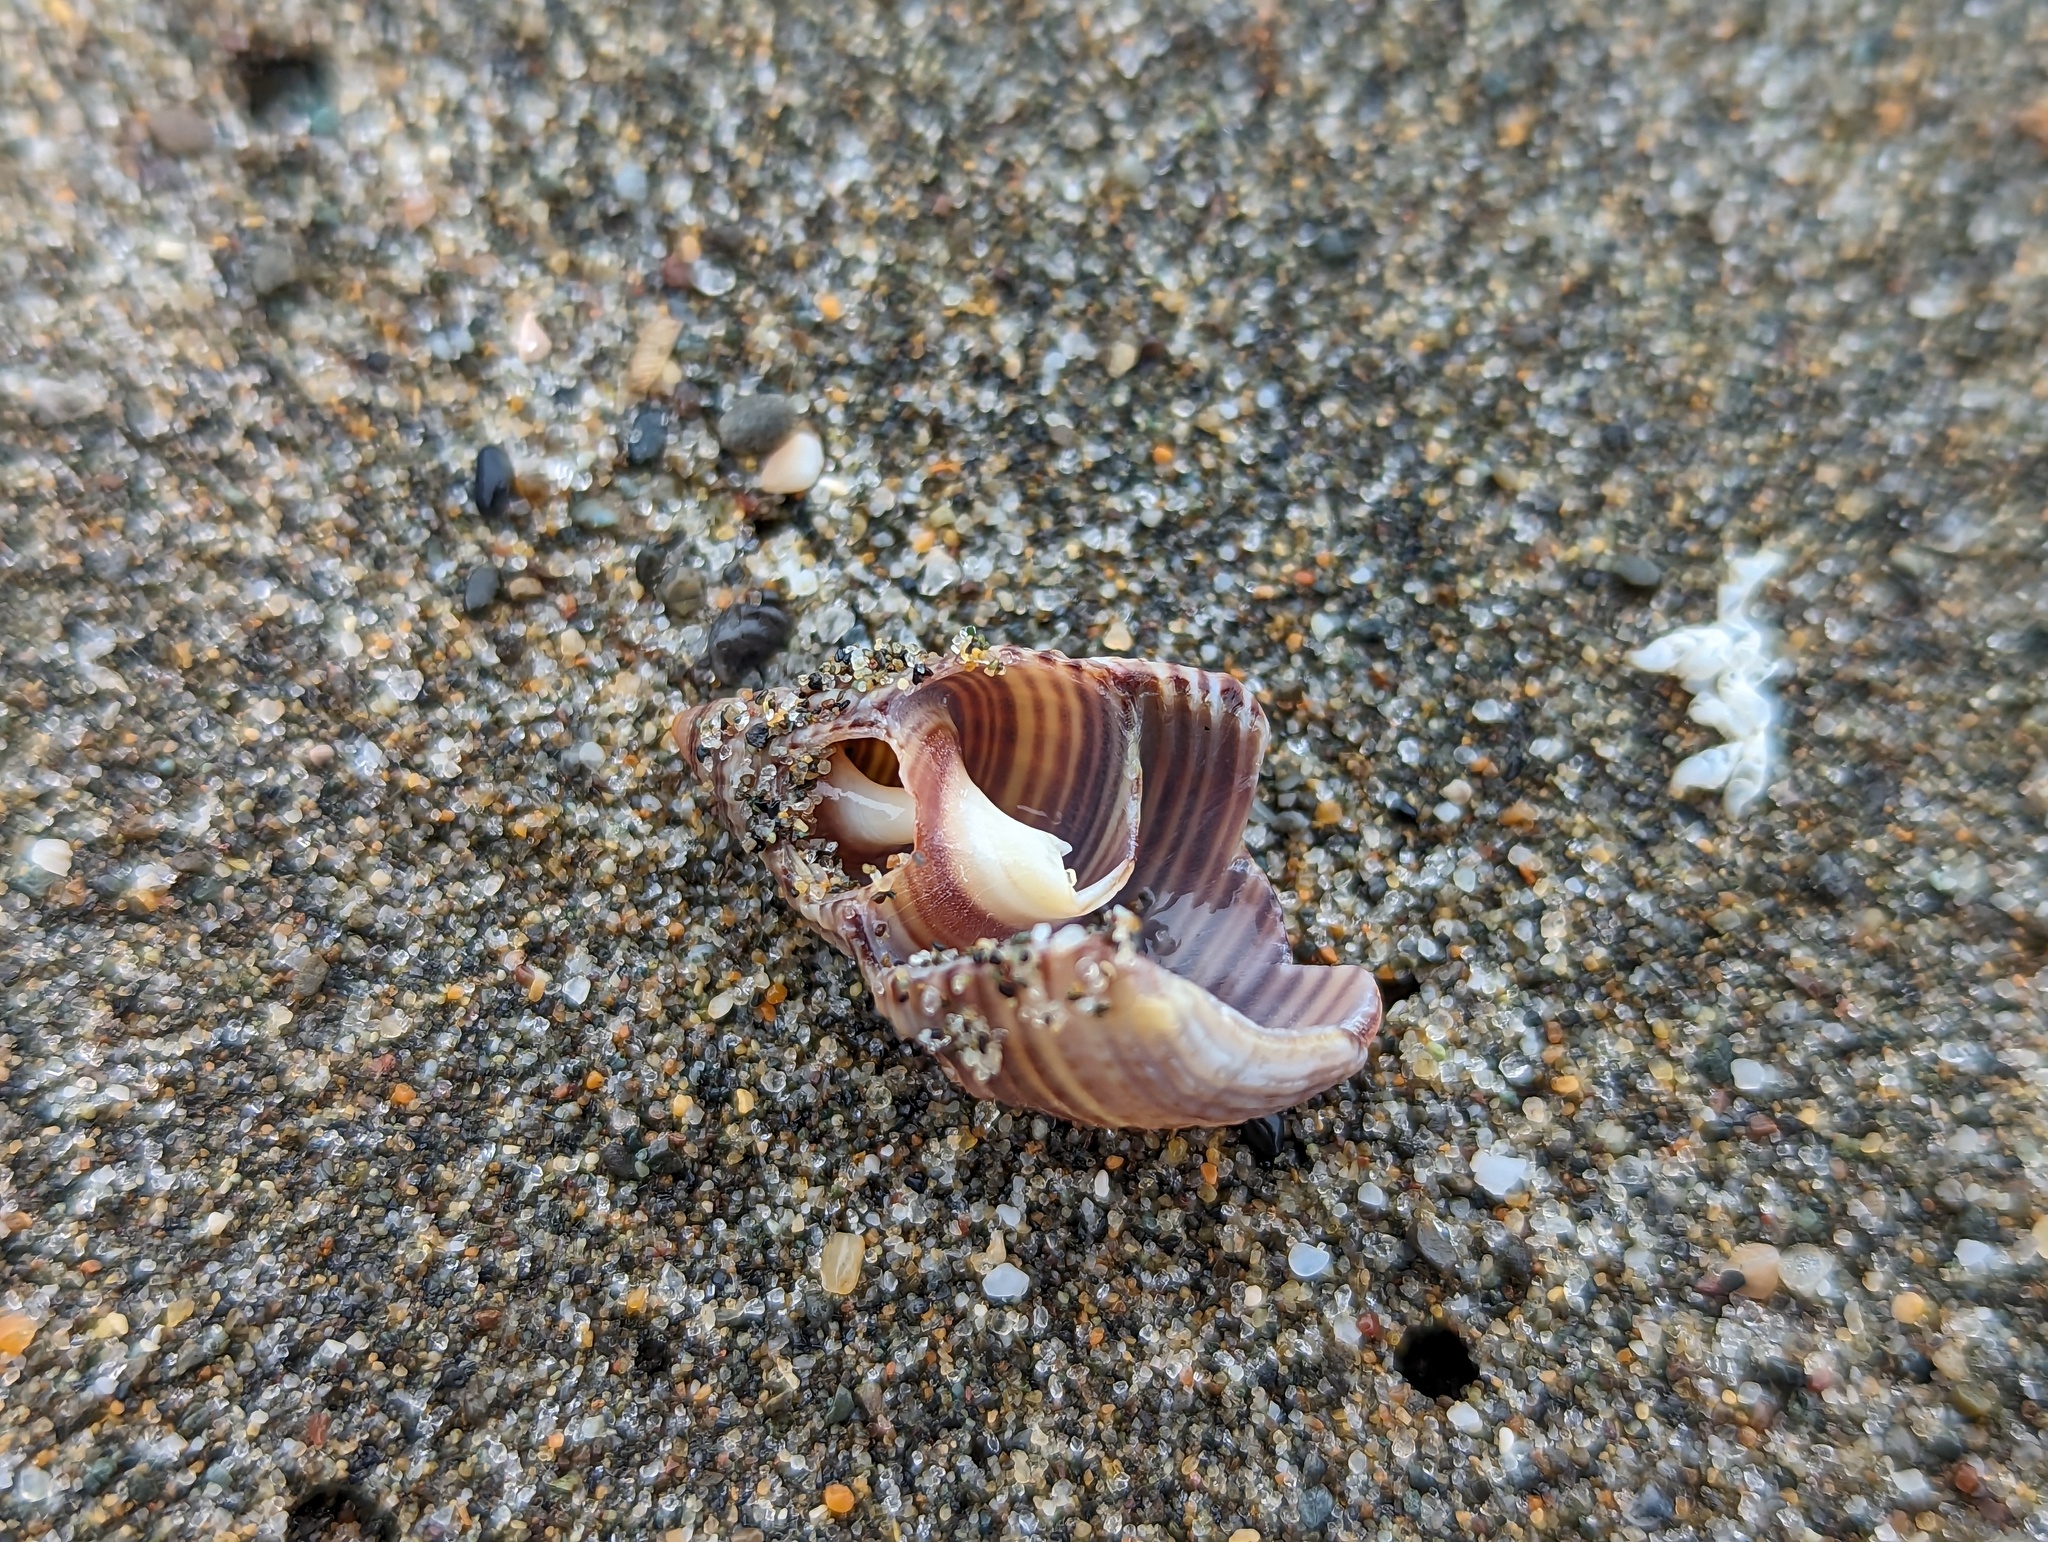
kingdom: Animalia
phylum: Mollusca
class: Gastropoda
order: Neogastropoda
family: Nassariidae
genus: Caesia
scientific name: Caesia fossata
